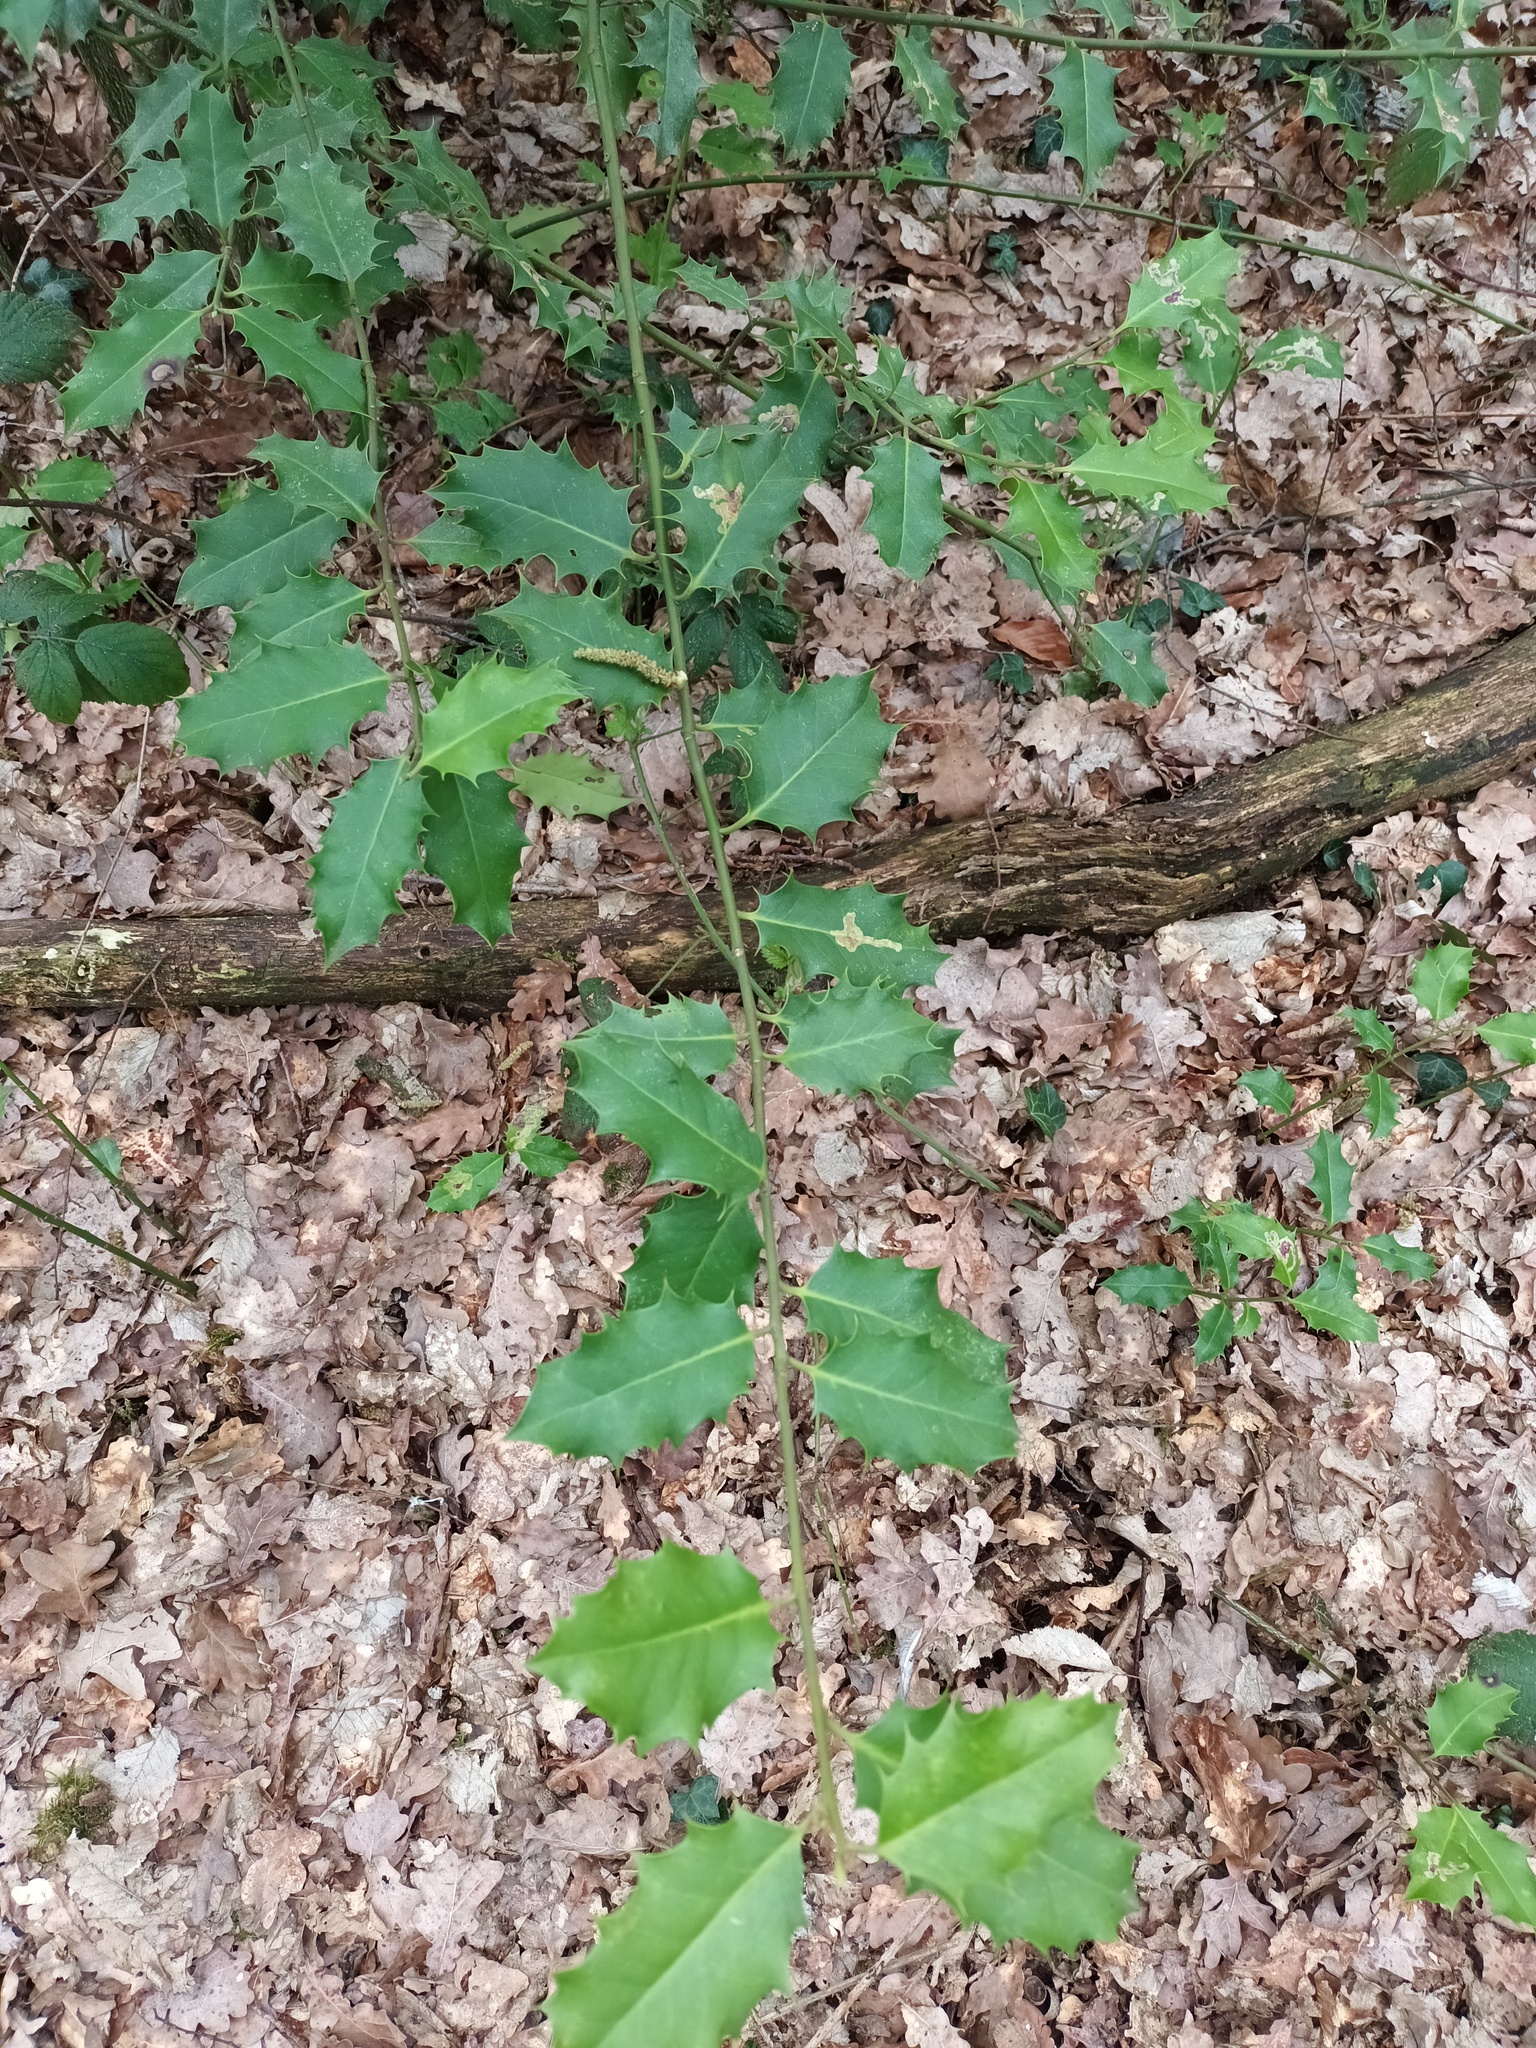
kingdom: Plantae
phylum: Tracheophyta
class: Magnoliopsida
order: Aquifoliales
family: Aquifoliaceae
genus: Ilex
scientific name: Ilex aquifolium
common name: English holly
